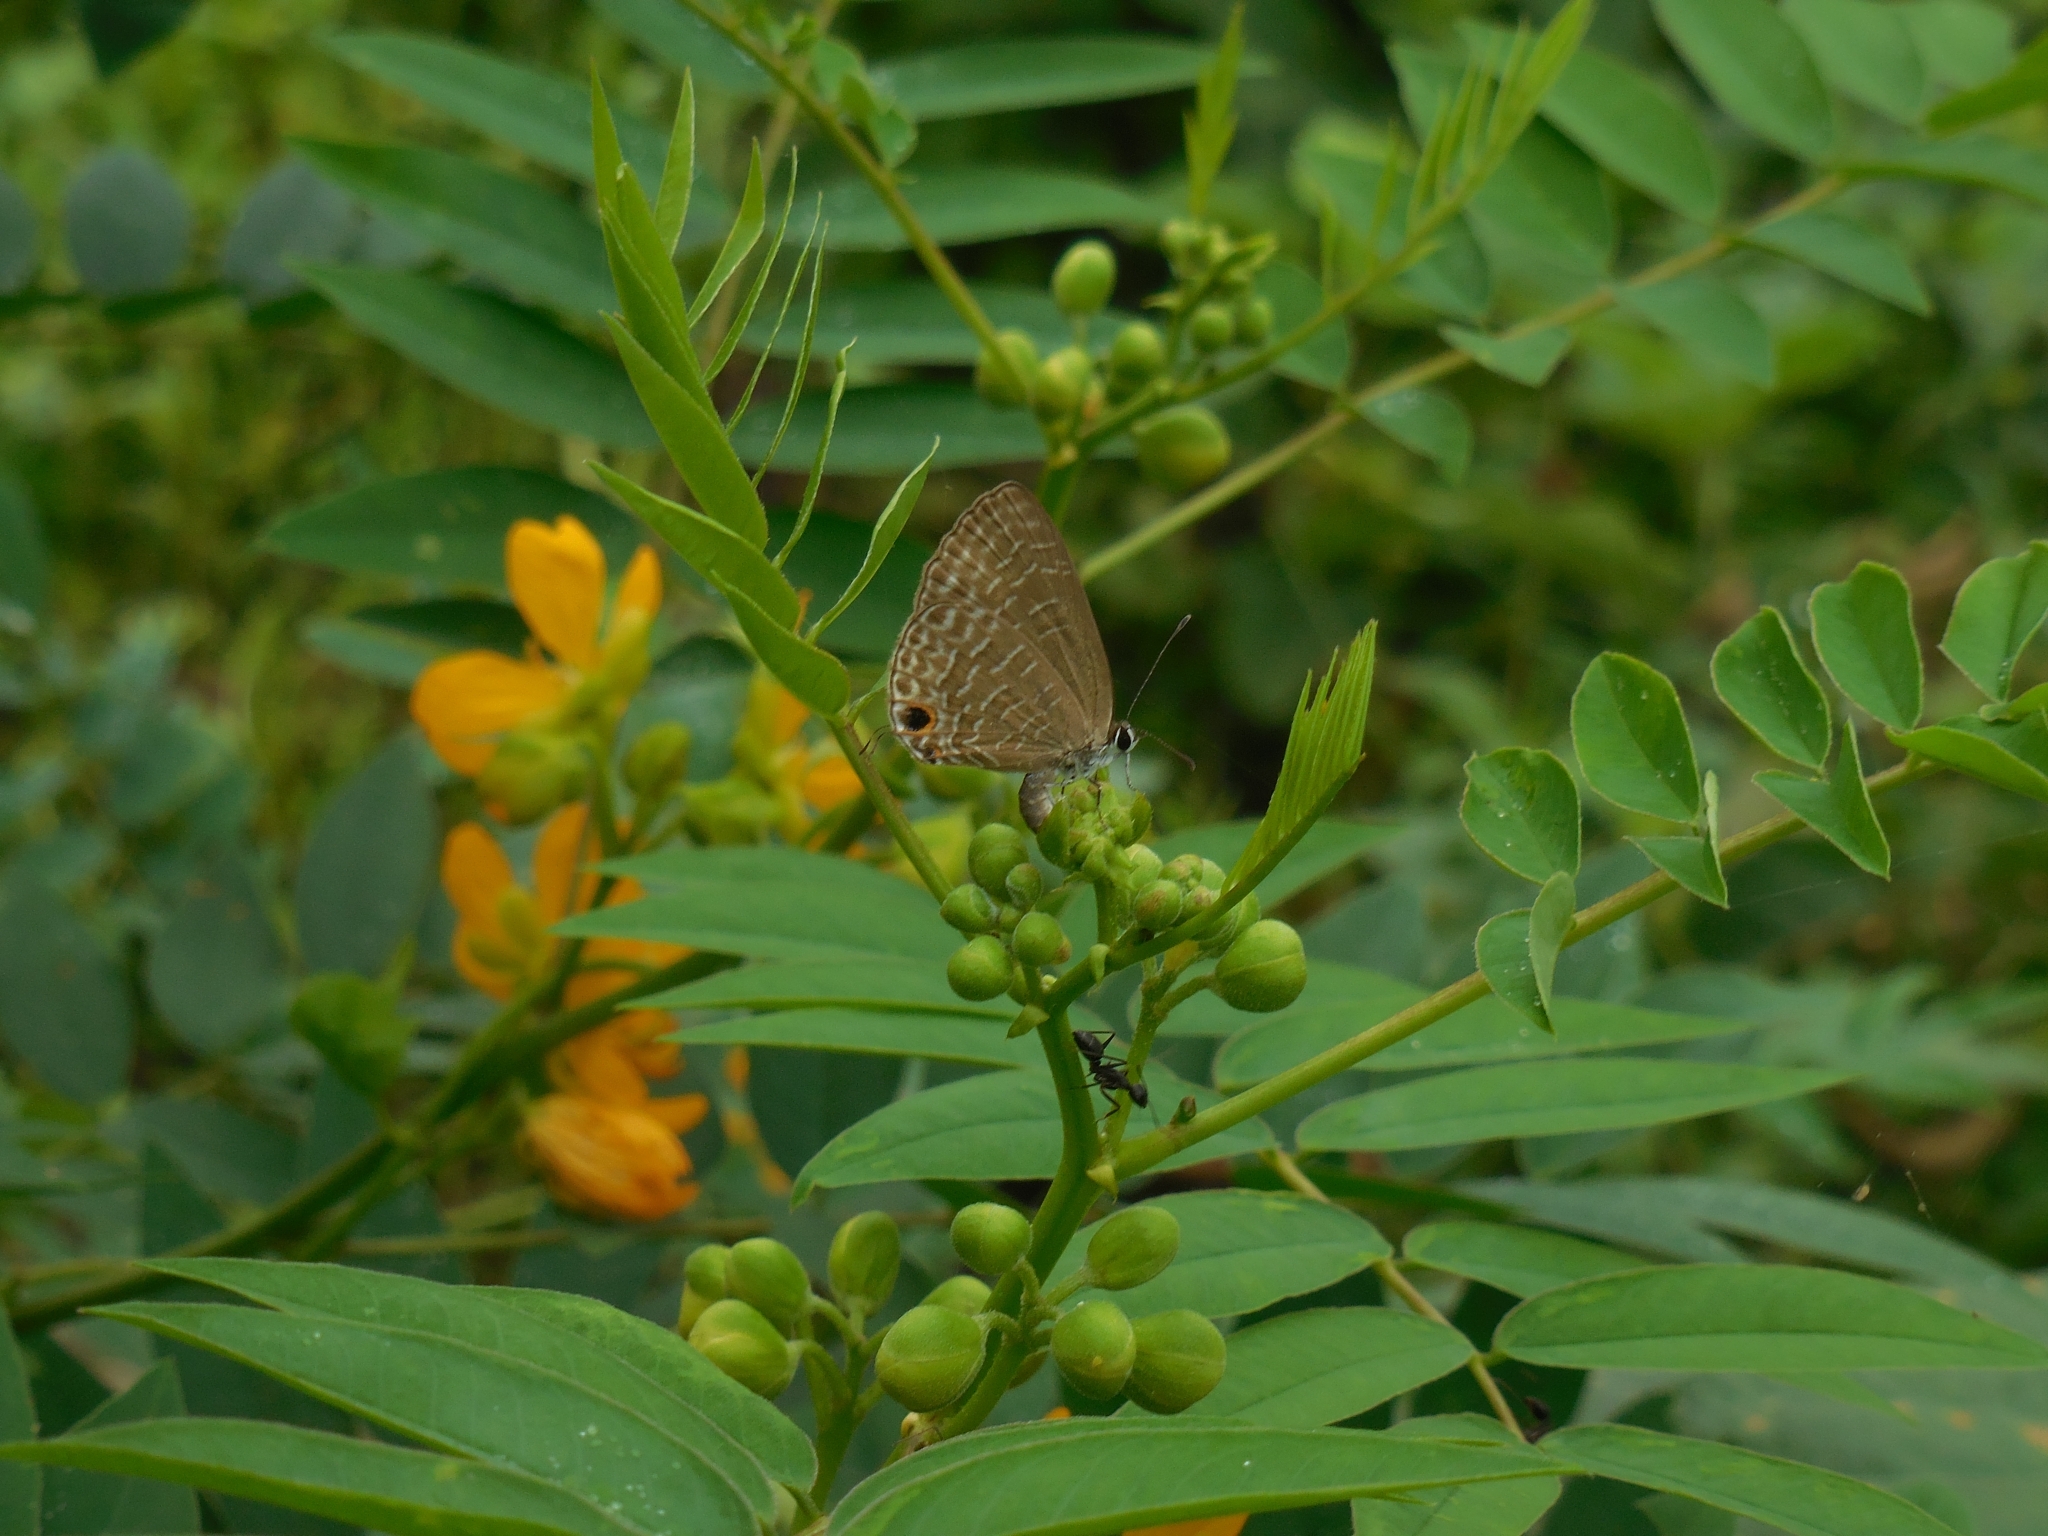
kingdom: Animalia
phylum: Arthropoda
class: Insecta
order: Lepidoptera
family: Lycaenidae
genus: Jamides
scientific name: Jamides bochus
